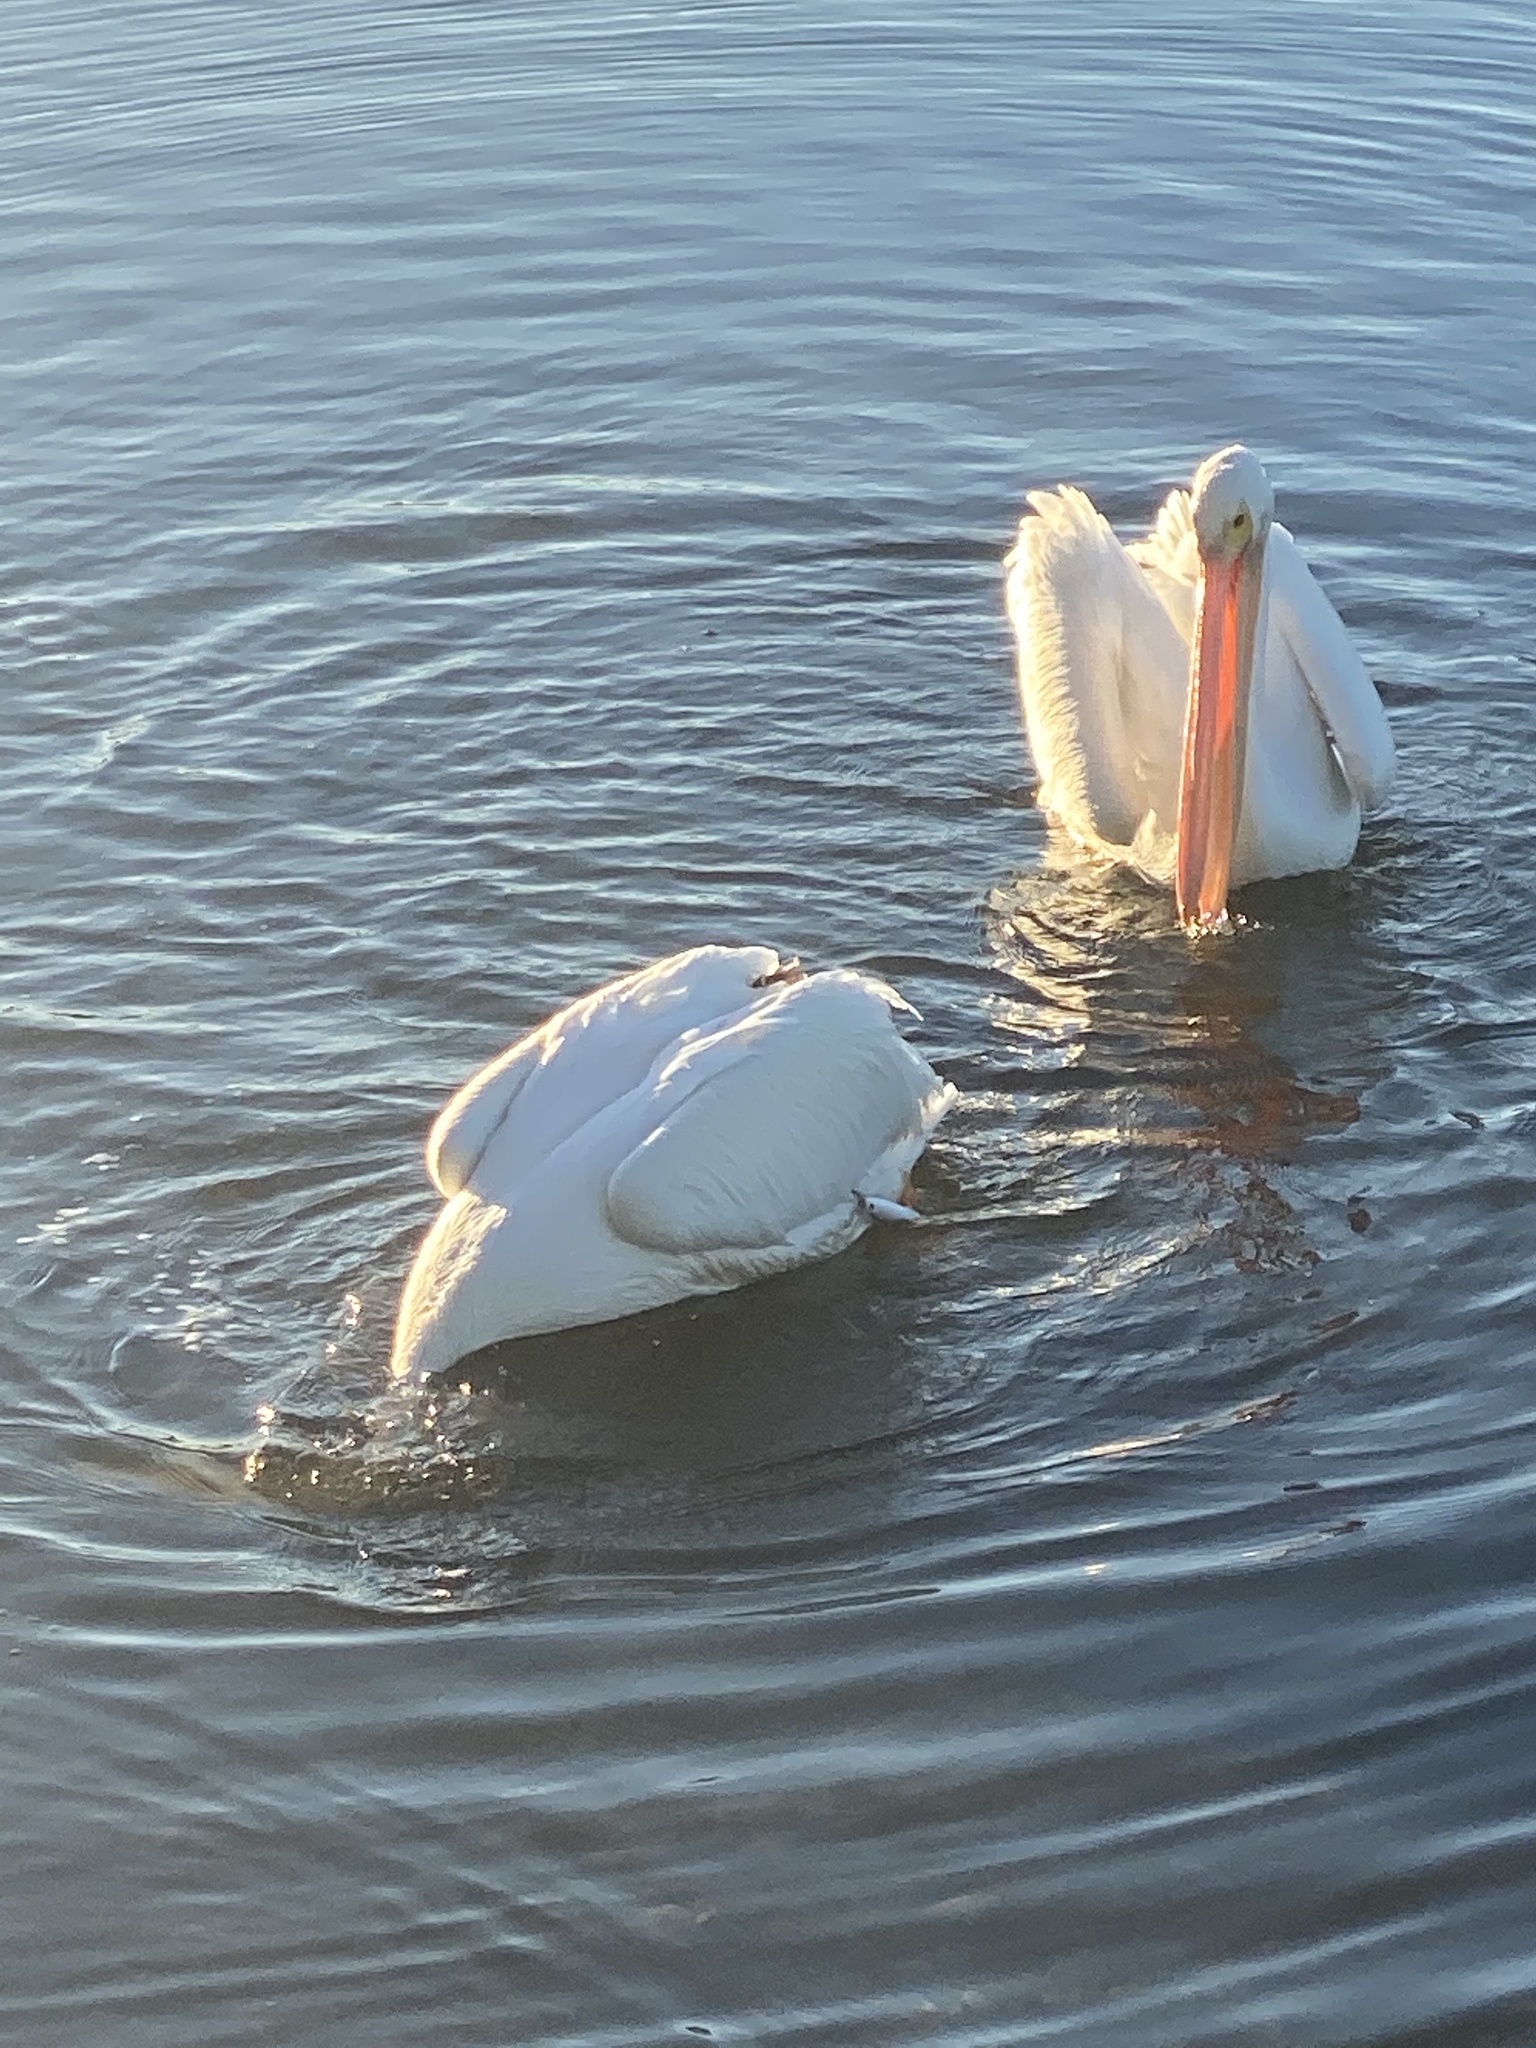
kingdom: Animalia
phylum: Chordata
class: Aves
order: Pelecaniformes
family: Pelecanidae
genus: Pelecanus
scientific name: Pelecanus erythrorhynchos
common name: American white pelican
